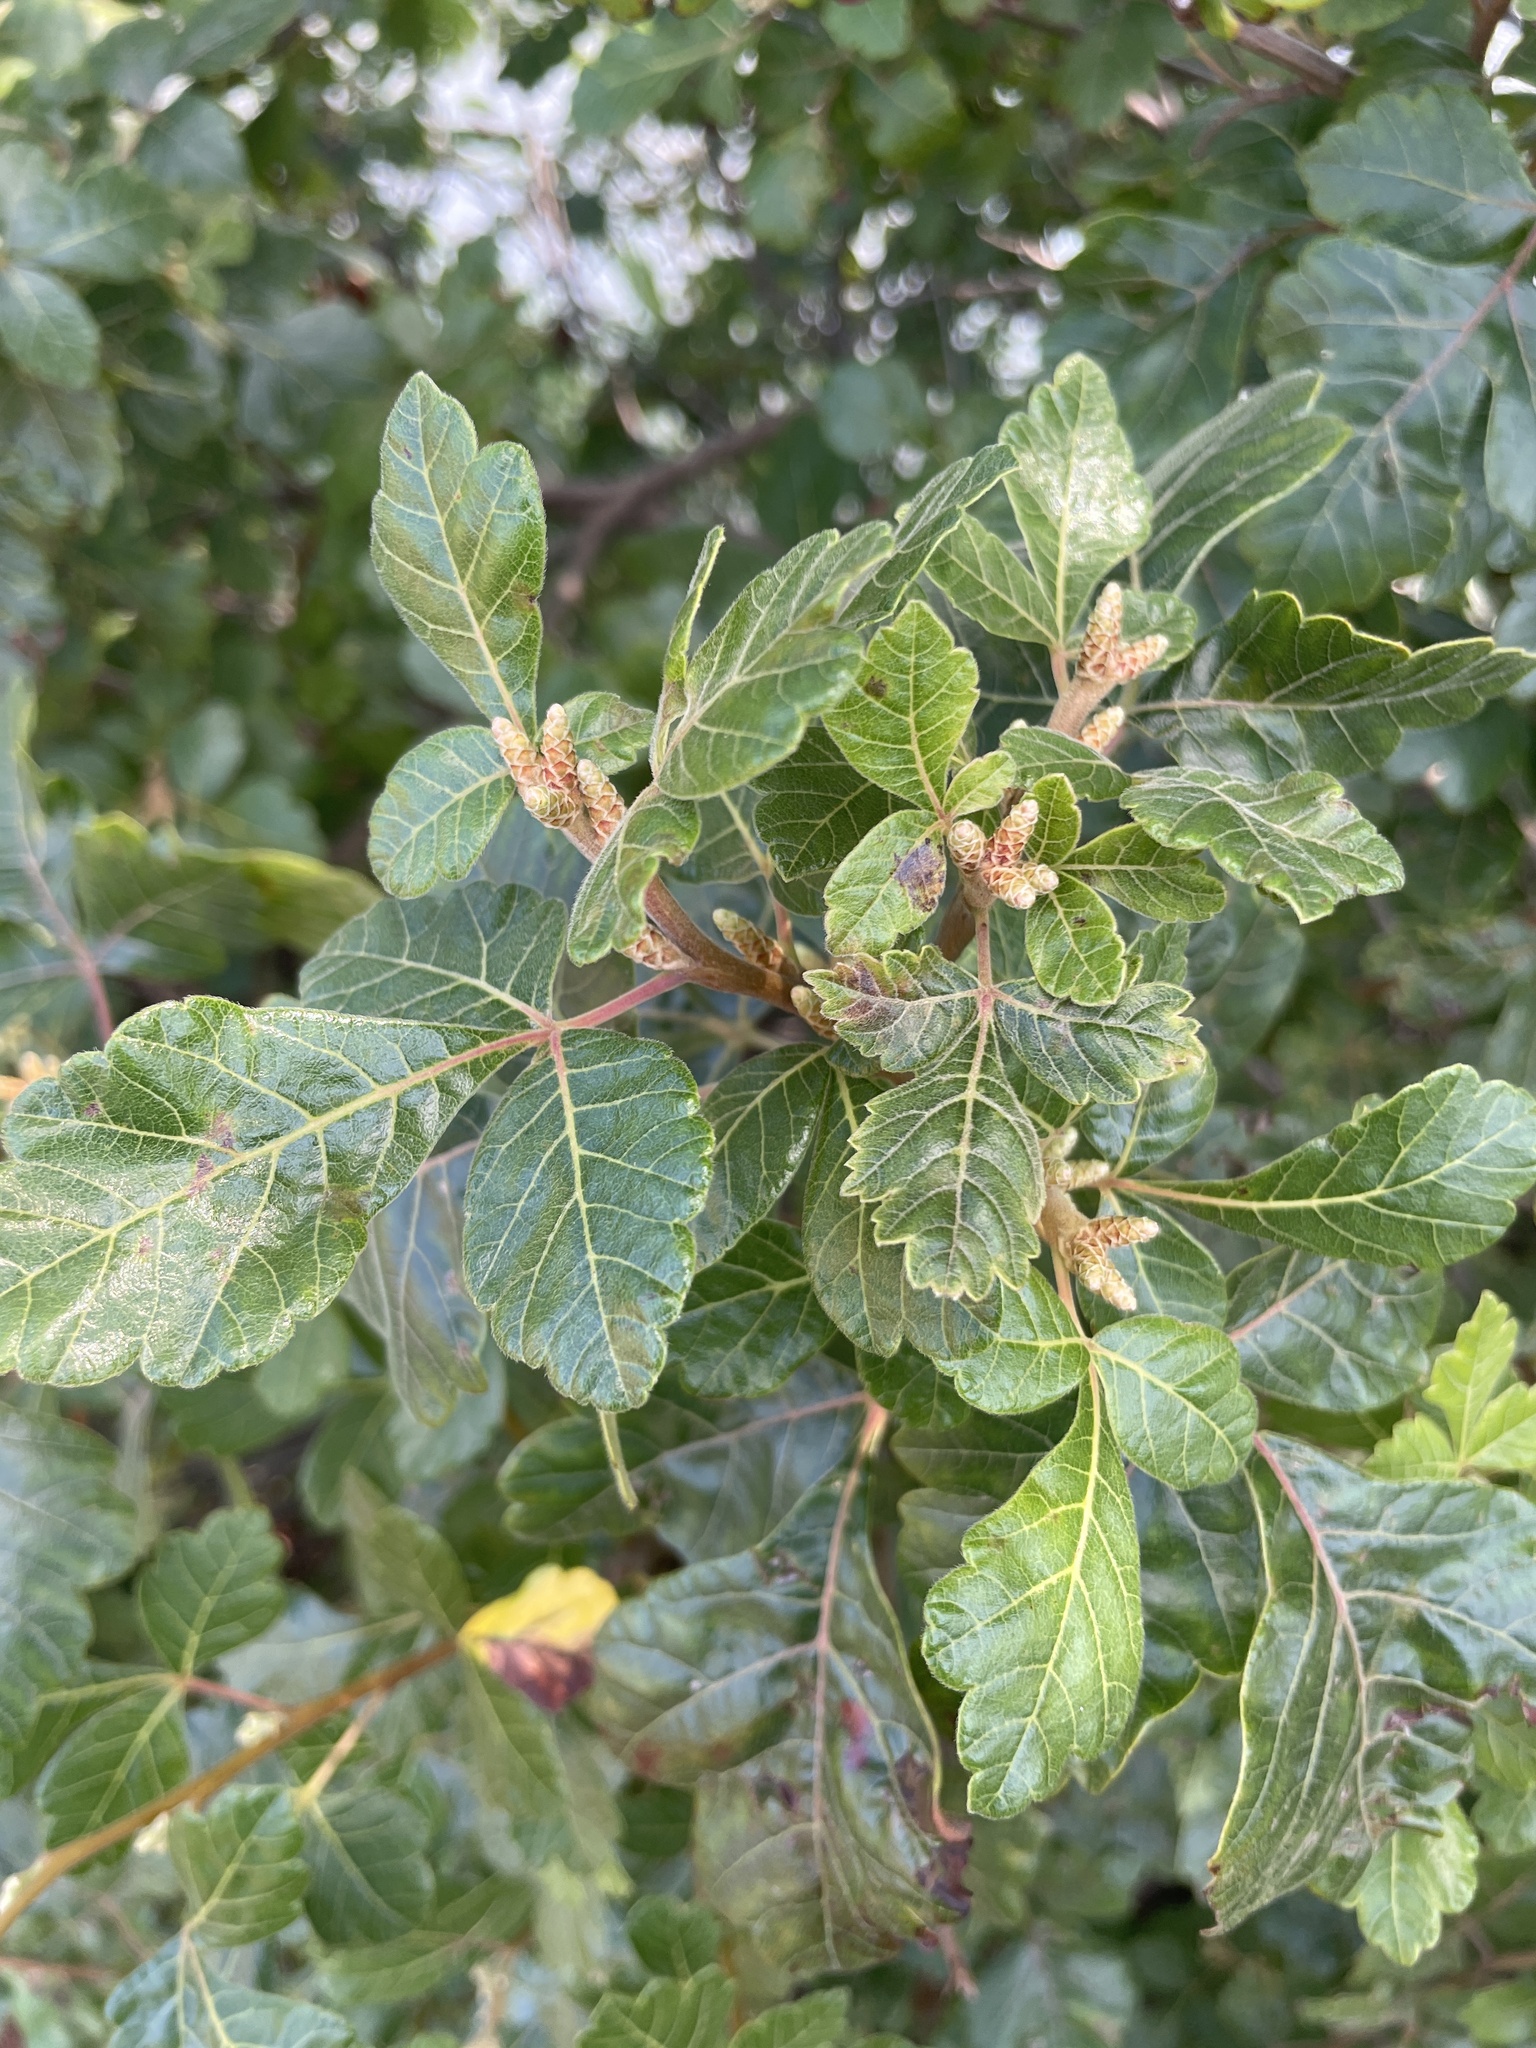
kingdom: Plantae
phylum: Tracheophyta
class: Magnoliopsida
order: Sapindales
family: Anacardiaceae
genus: Rhus
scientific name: Rhus aromatica
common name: Aromatic sumac
